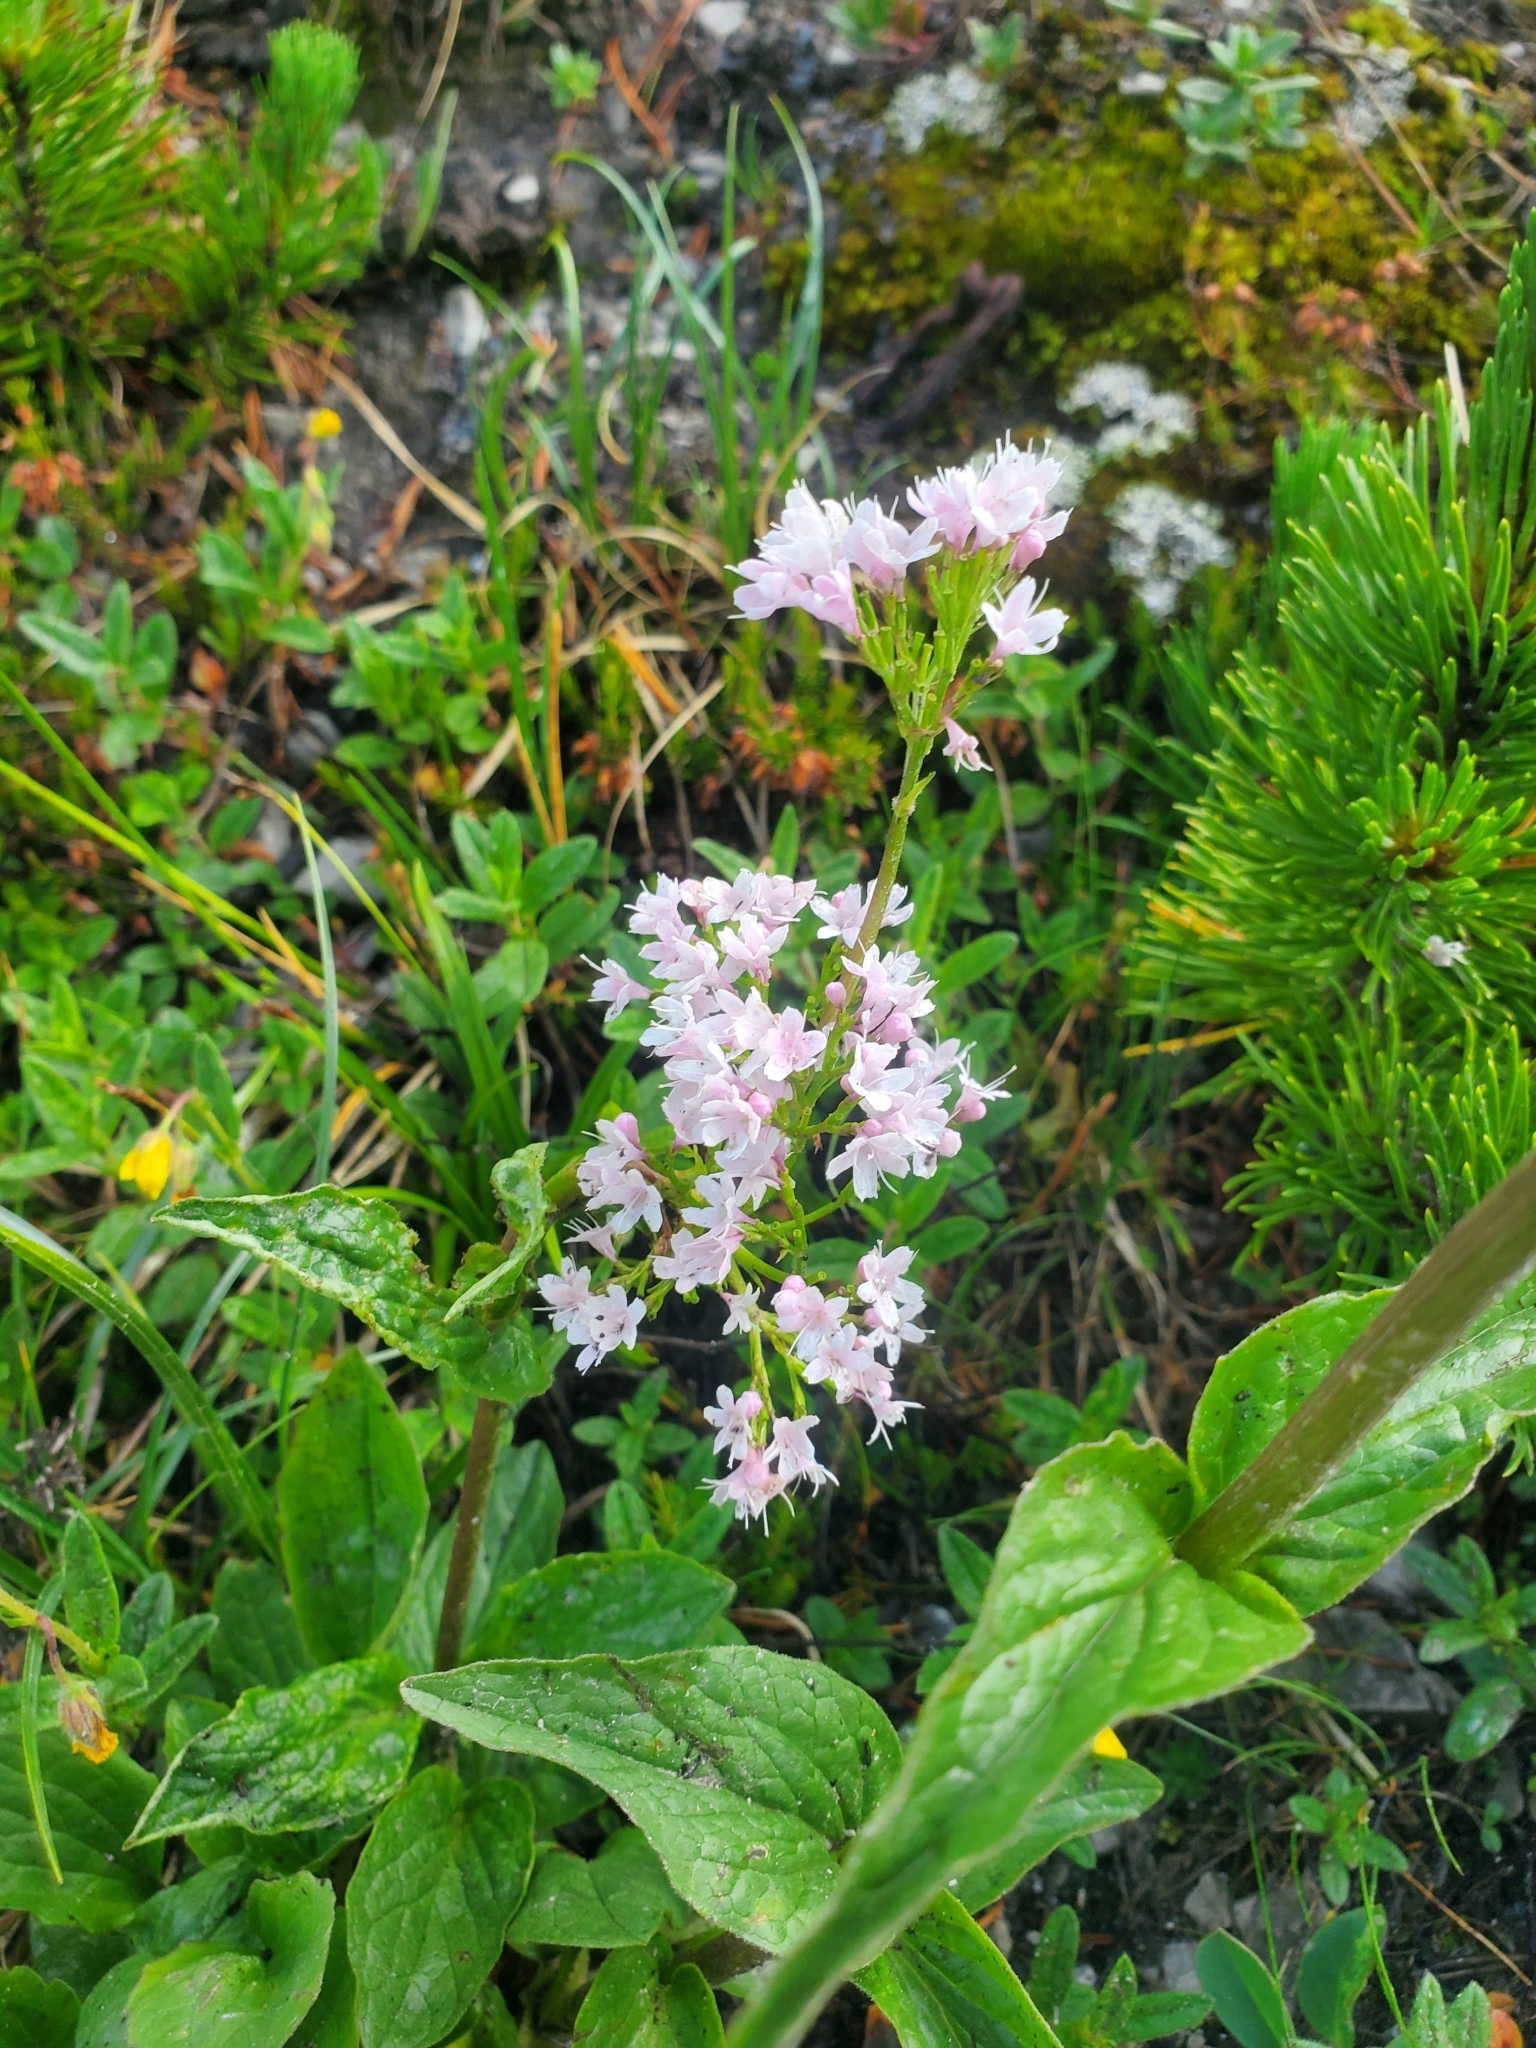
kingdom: Plantae
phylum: Tracheophyta
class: Magnoliopsida
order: Dipsacales
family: Caprifoliaceae
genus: Valeriana
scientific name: Valeriana montana
